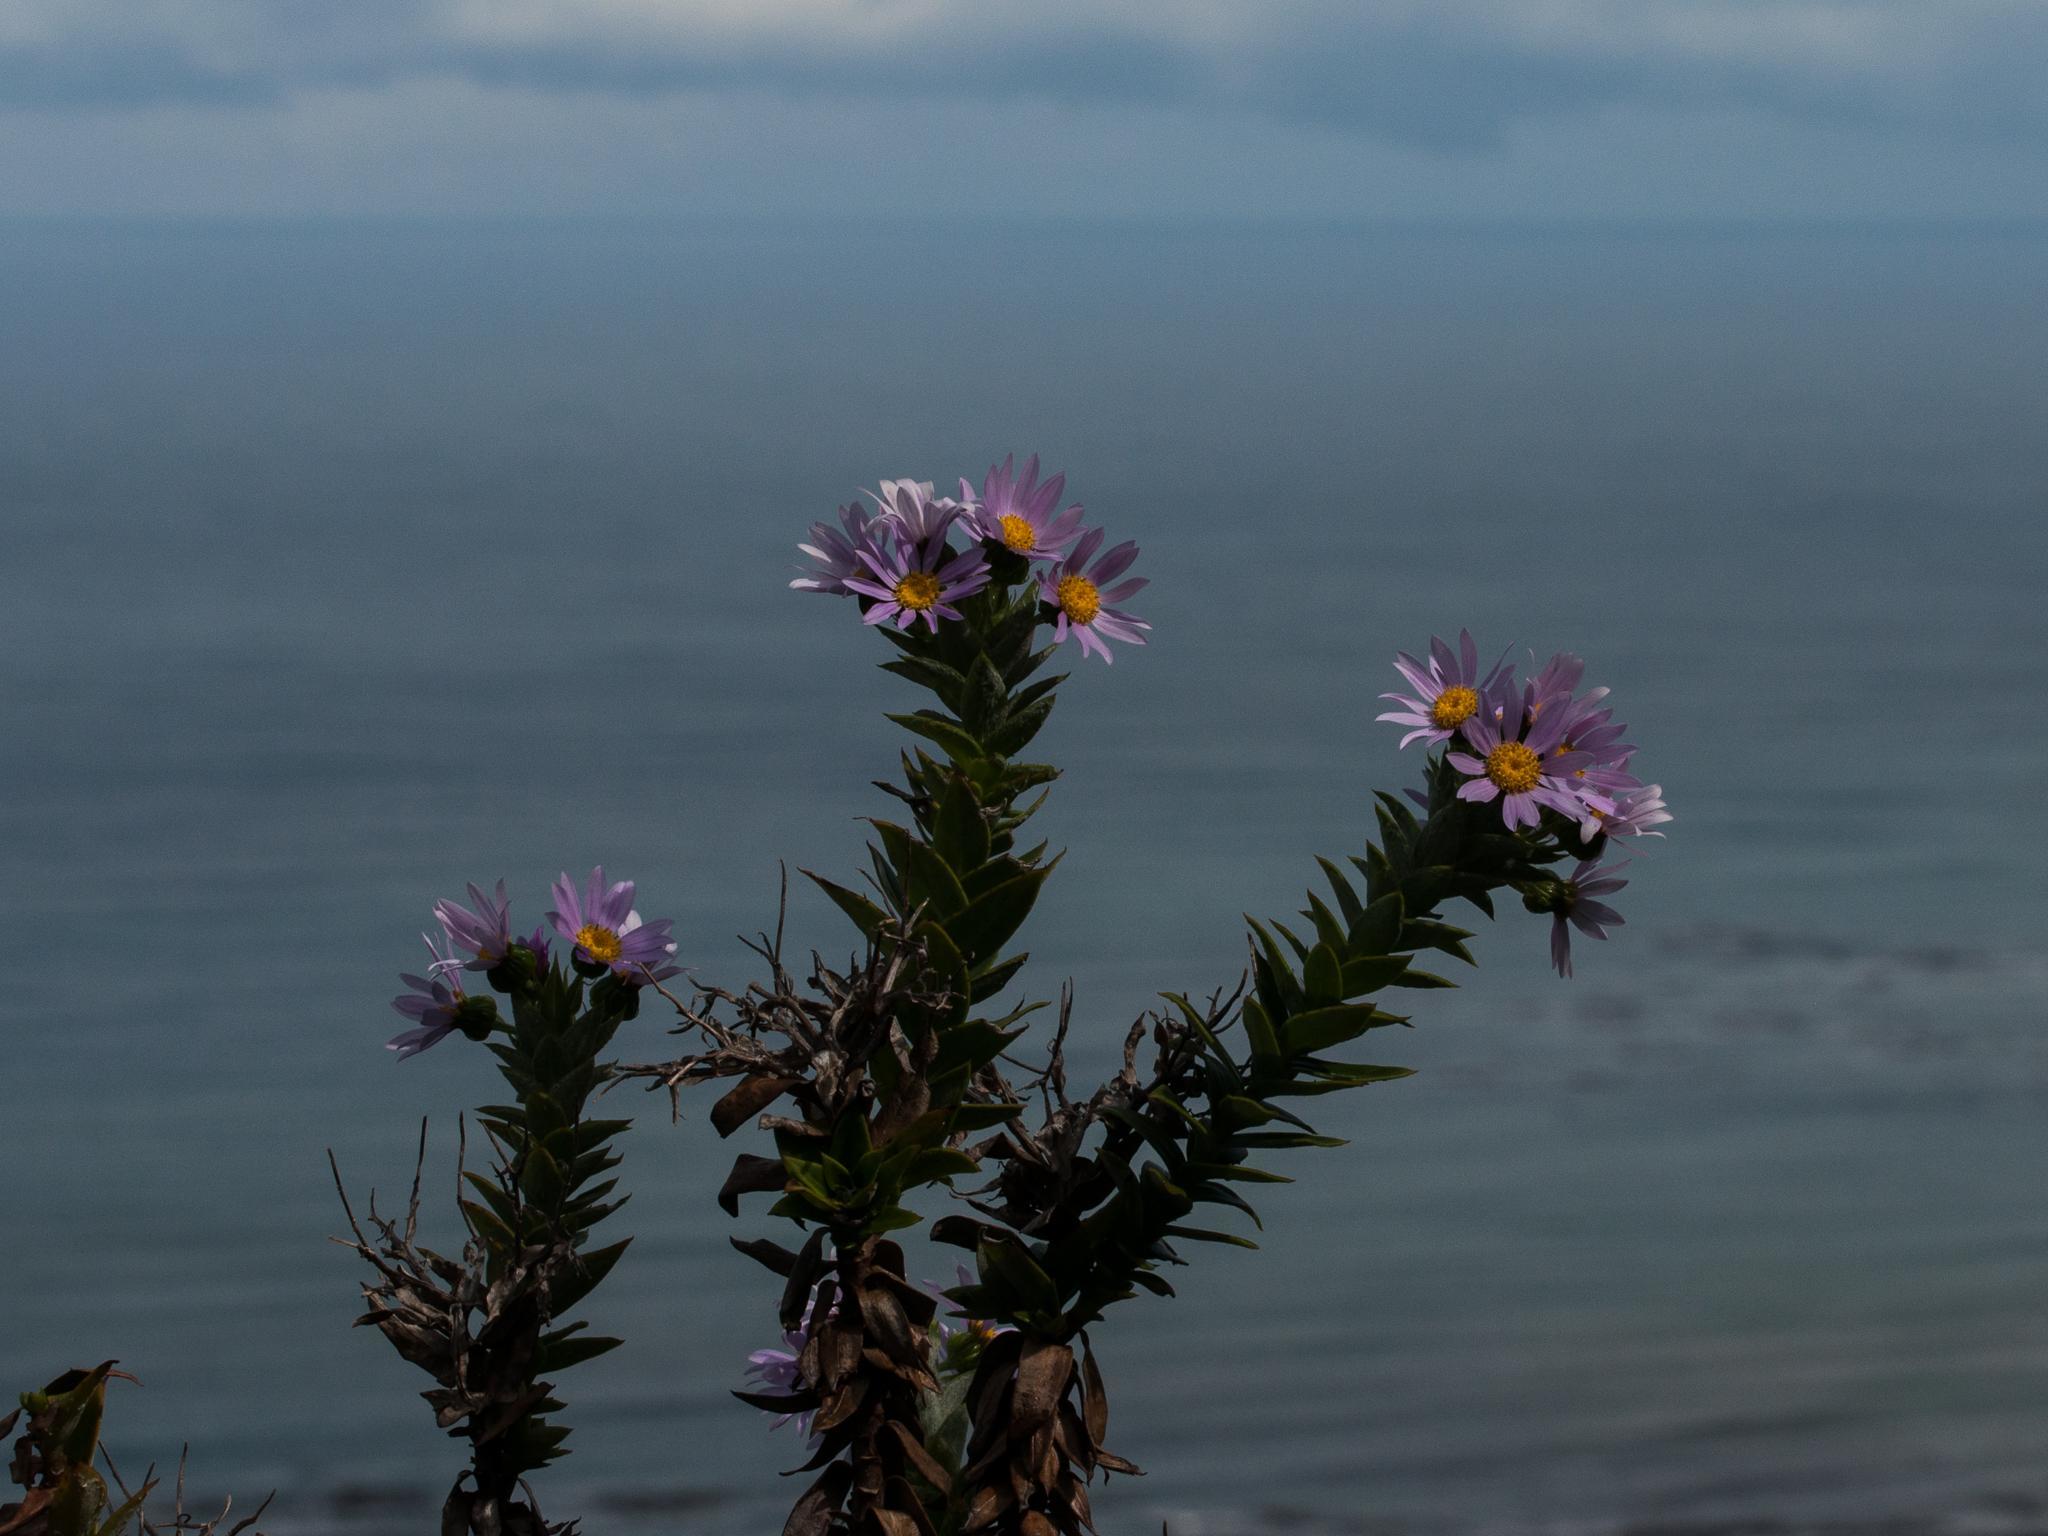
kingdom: Plantae
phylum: Tracheophyta
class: Magnoliopsida
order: Asterales
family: Asteraceae
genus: Senecio
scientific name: Senecio speciosissimus
